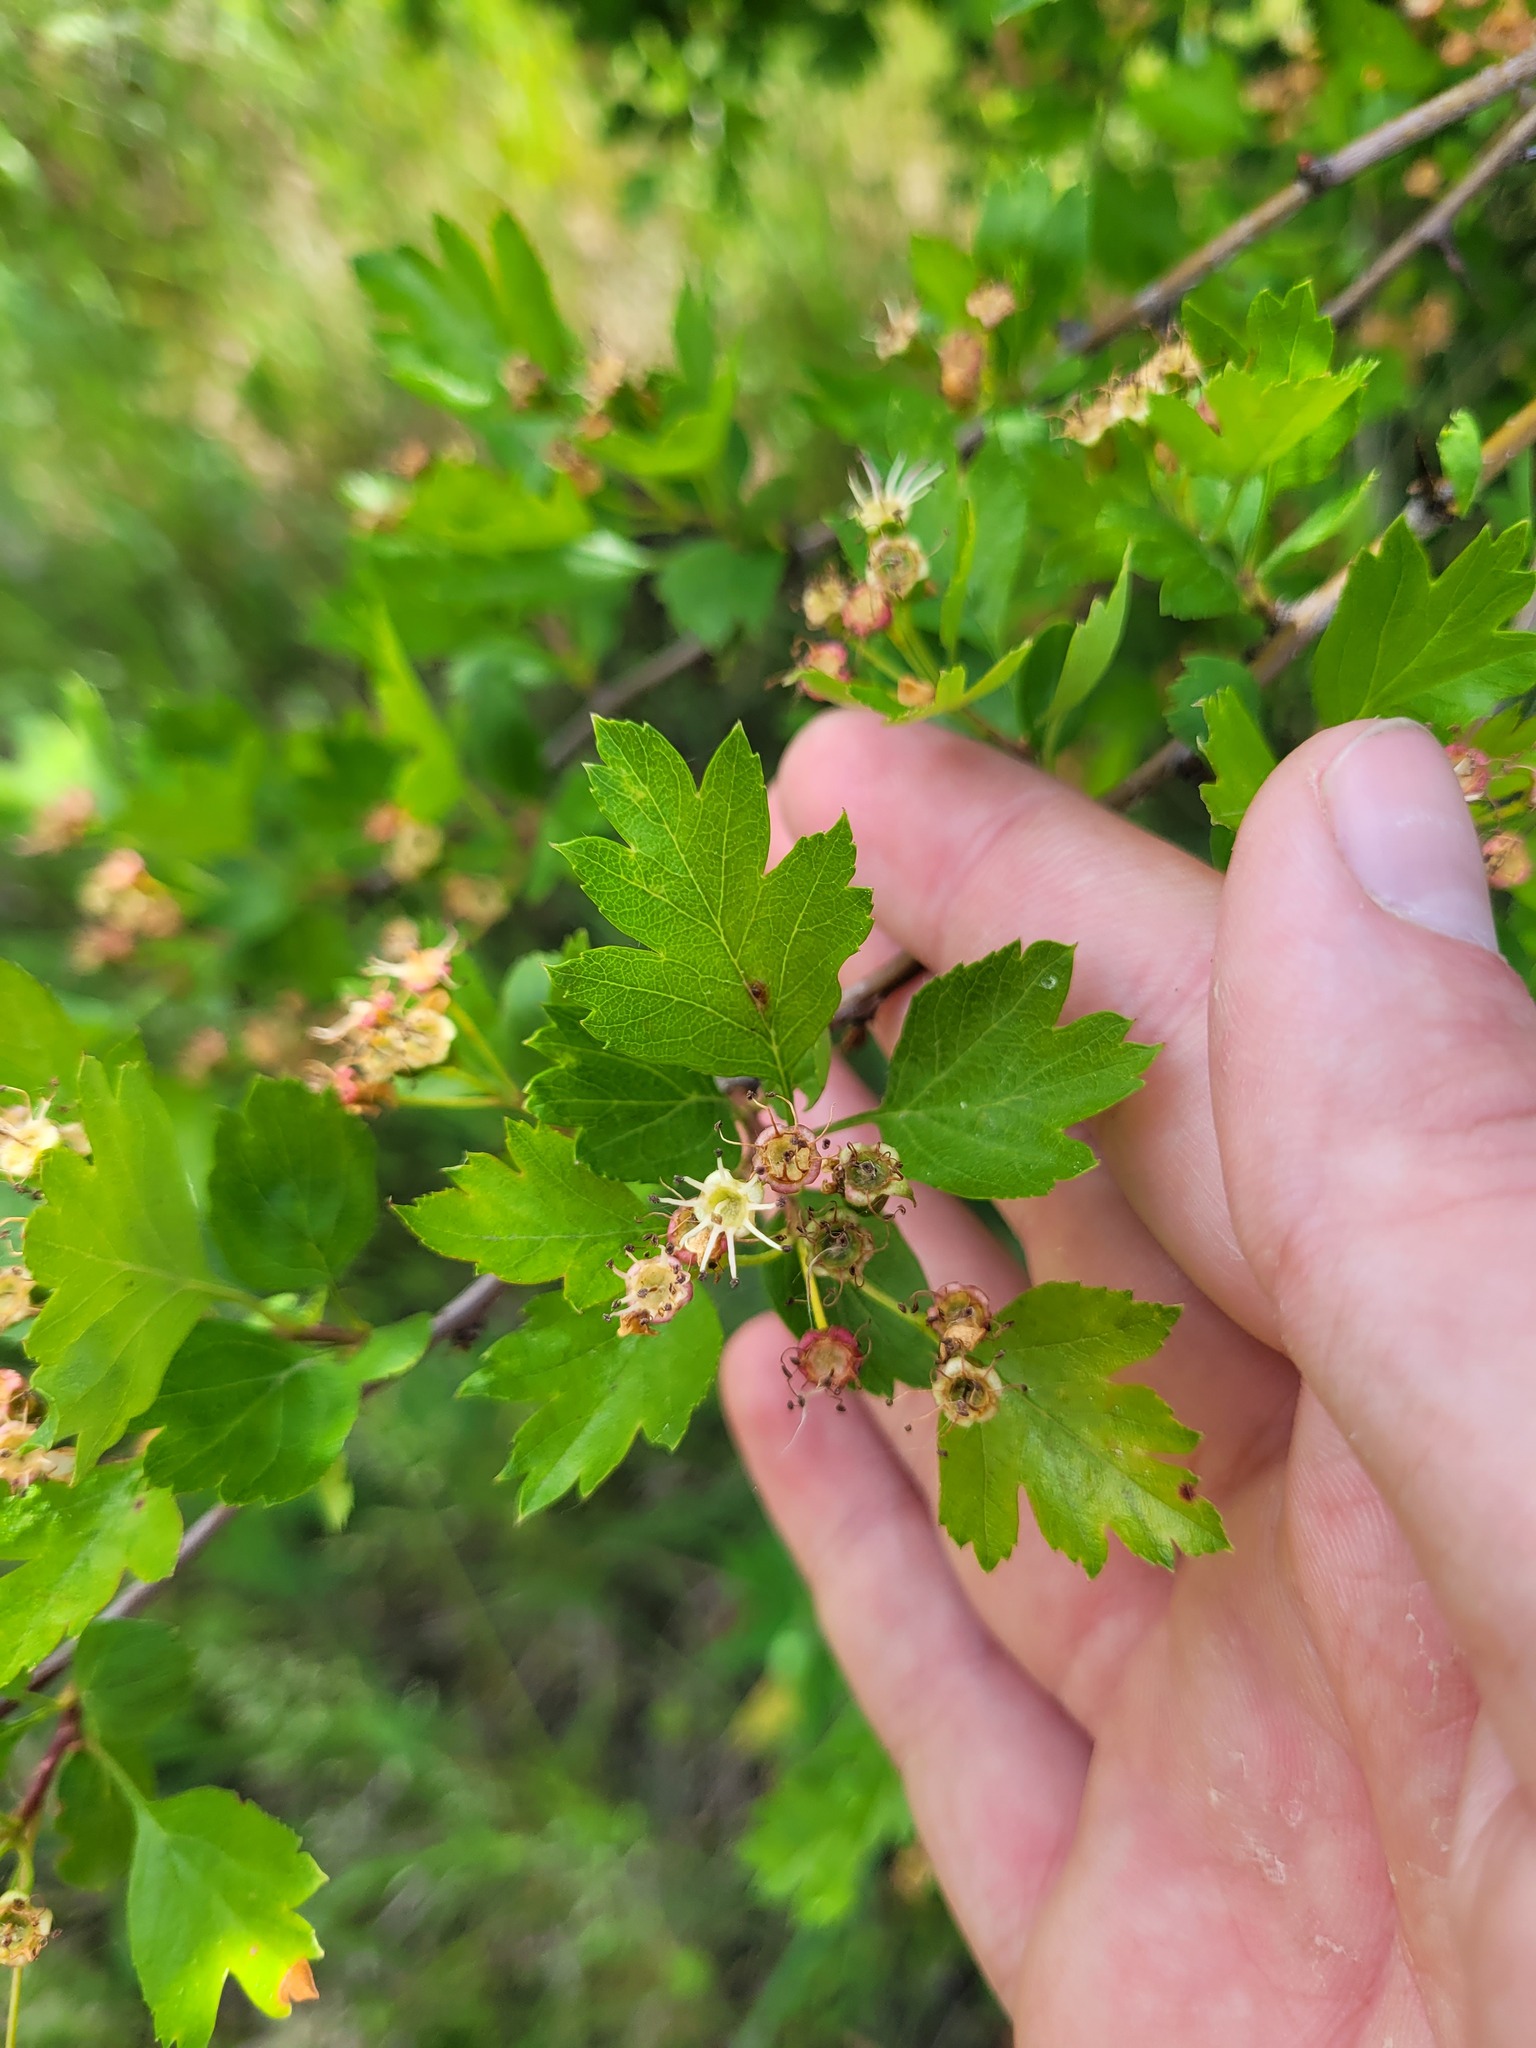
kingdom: Plantae
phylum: Tracheophyta
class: Magnoliopsida
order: Rosales
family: Rosaceae
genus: Crataegus
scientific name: Crataegus monogyna
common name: Hawthorn
